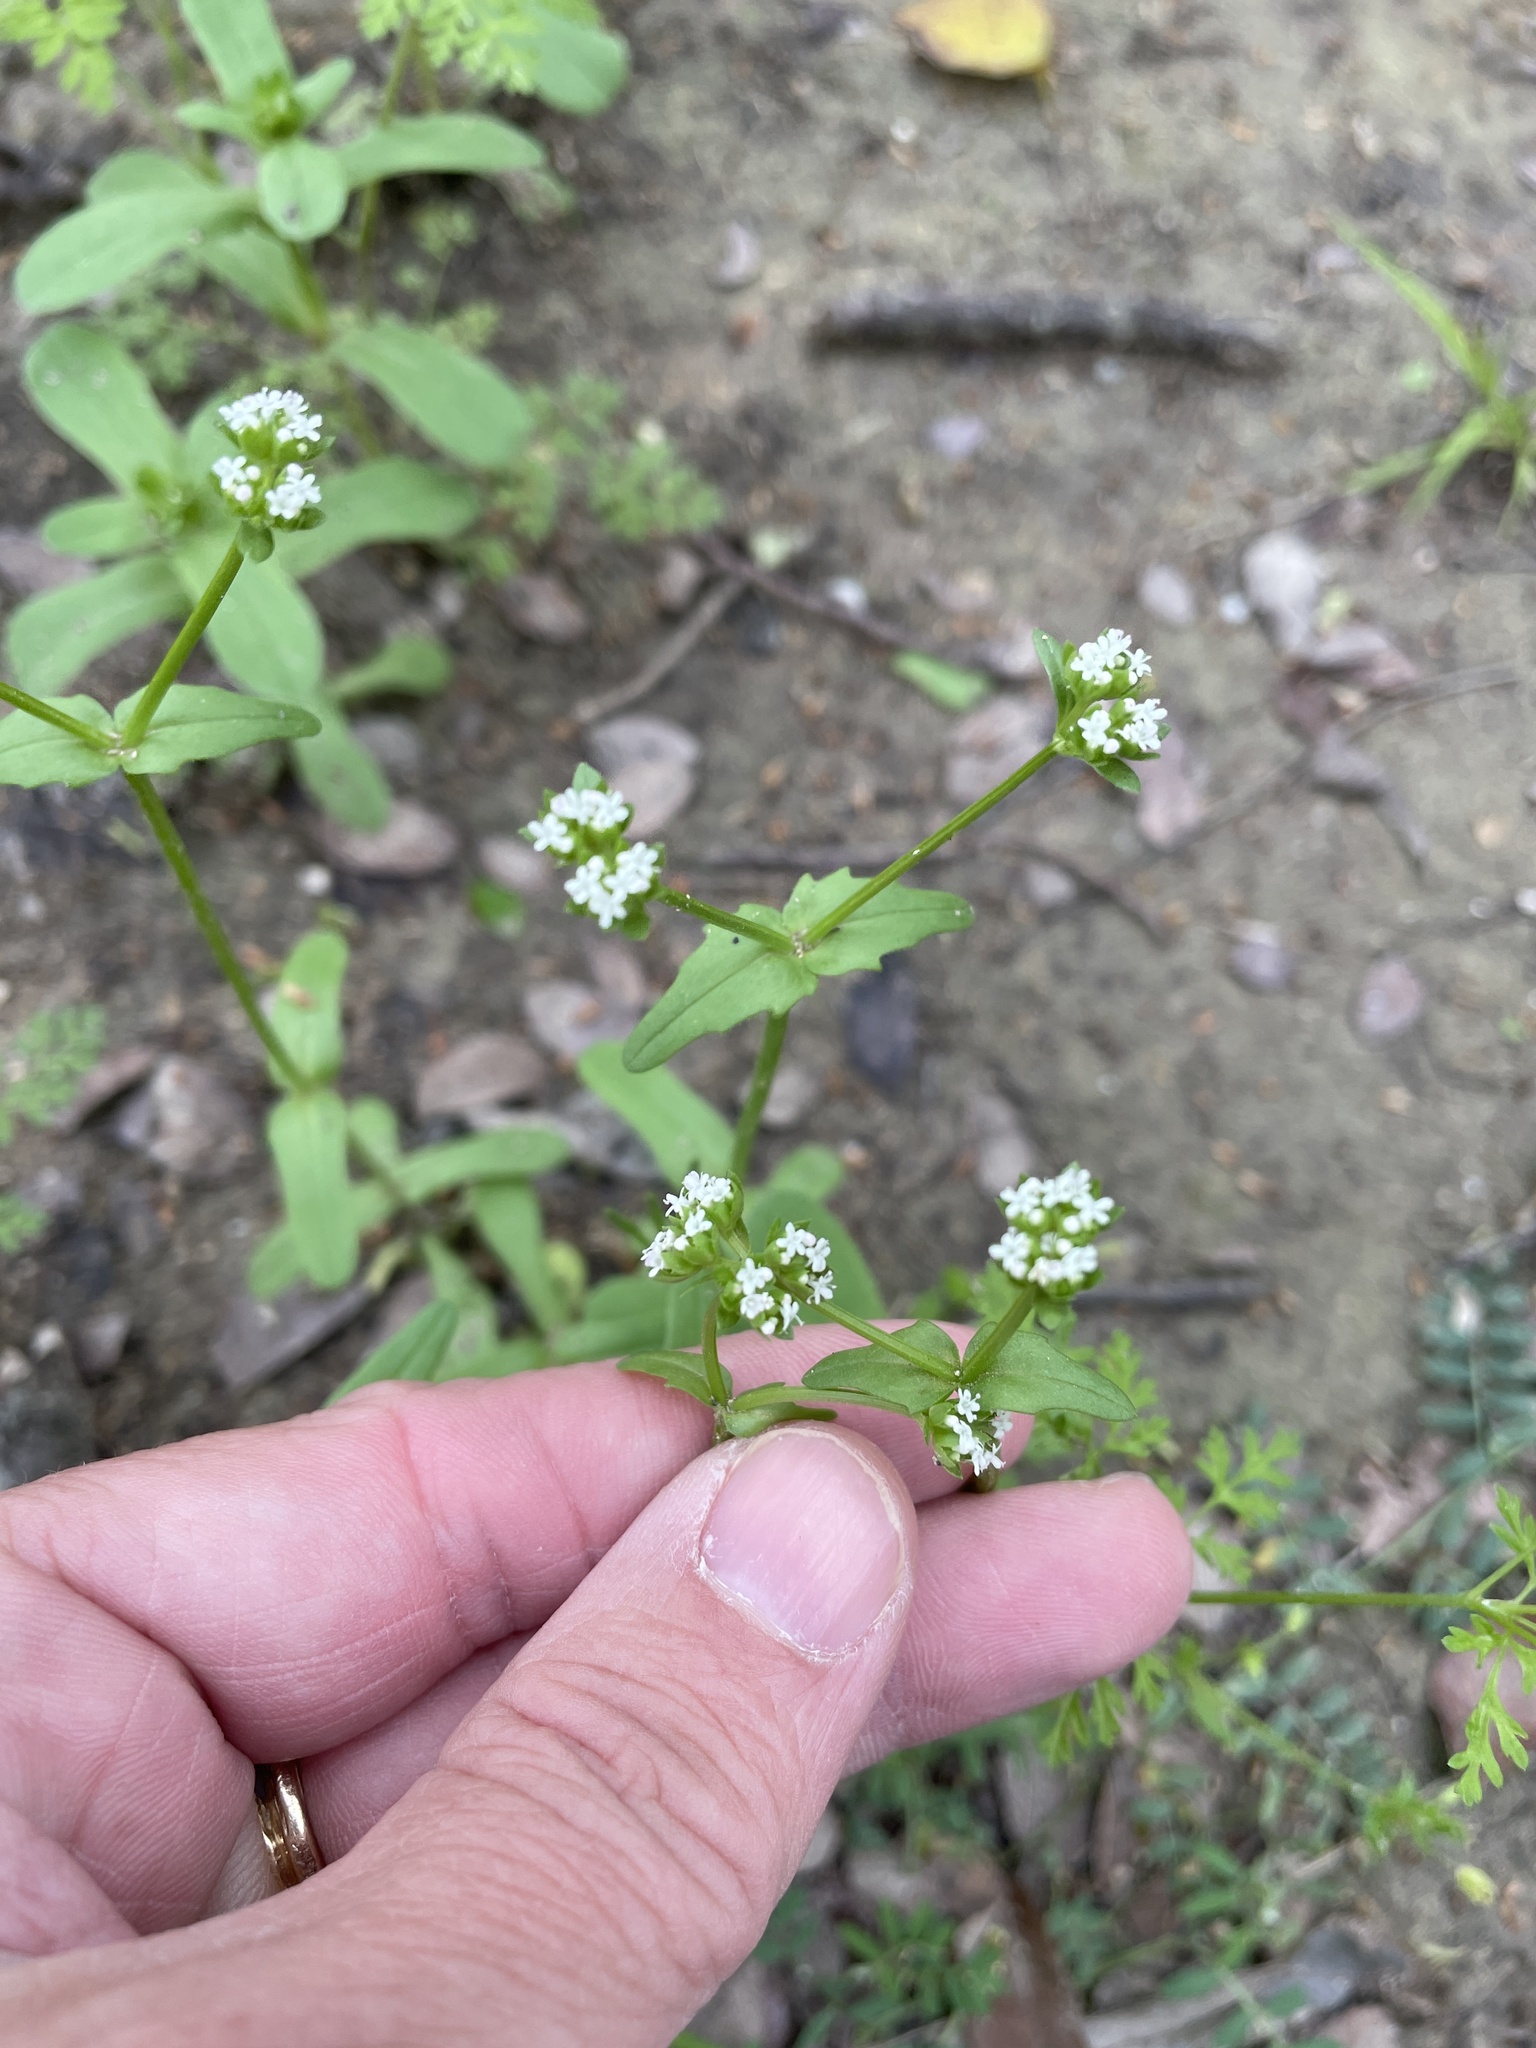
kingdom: Plantae
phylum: Tracheophyta
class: Magnoliopsida
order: Dipsacales
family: Caprifoliaceae
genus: Valerianella
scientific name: Valerianella radiata
